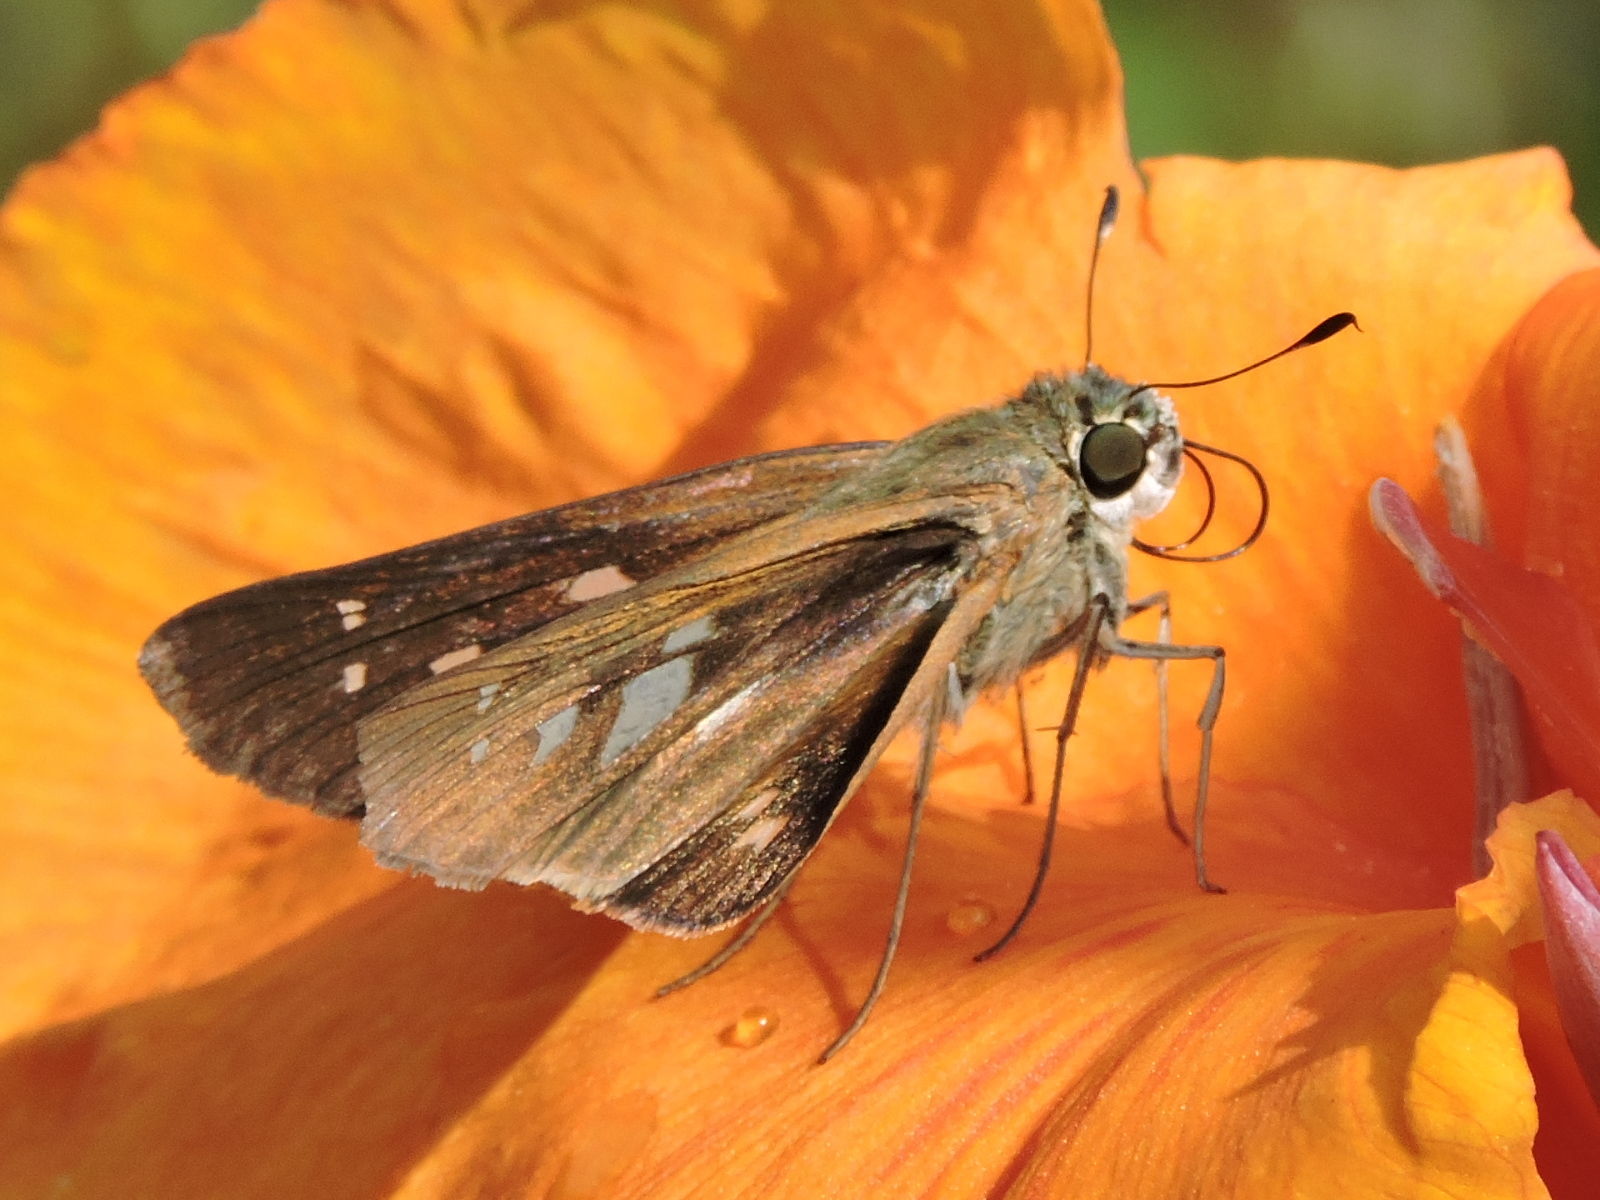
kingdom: Animalia
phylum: Arthropoda
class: Insecta
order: Lepidoptera
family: Hesperiidae
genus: Calpodes
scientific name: Calpodes ethlius
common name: Brazilian skipper
